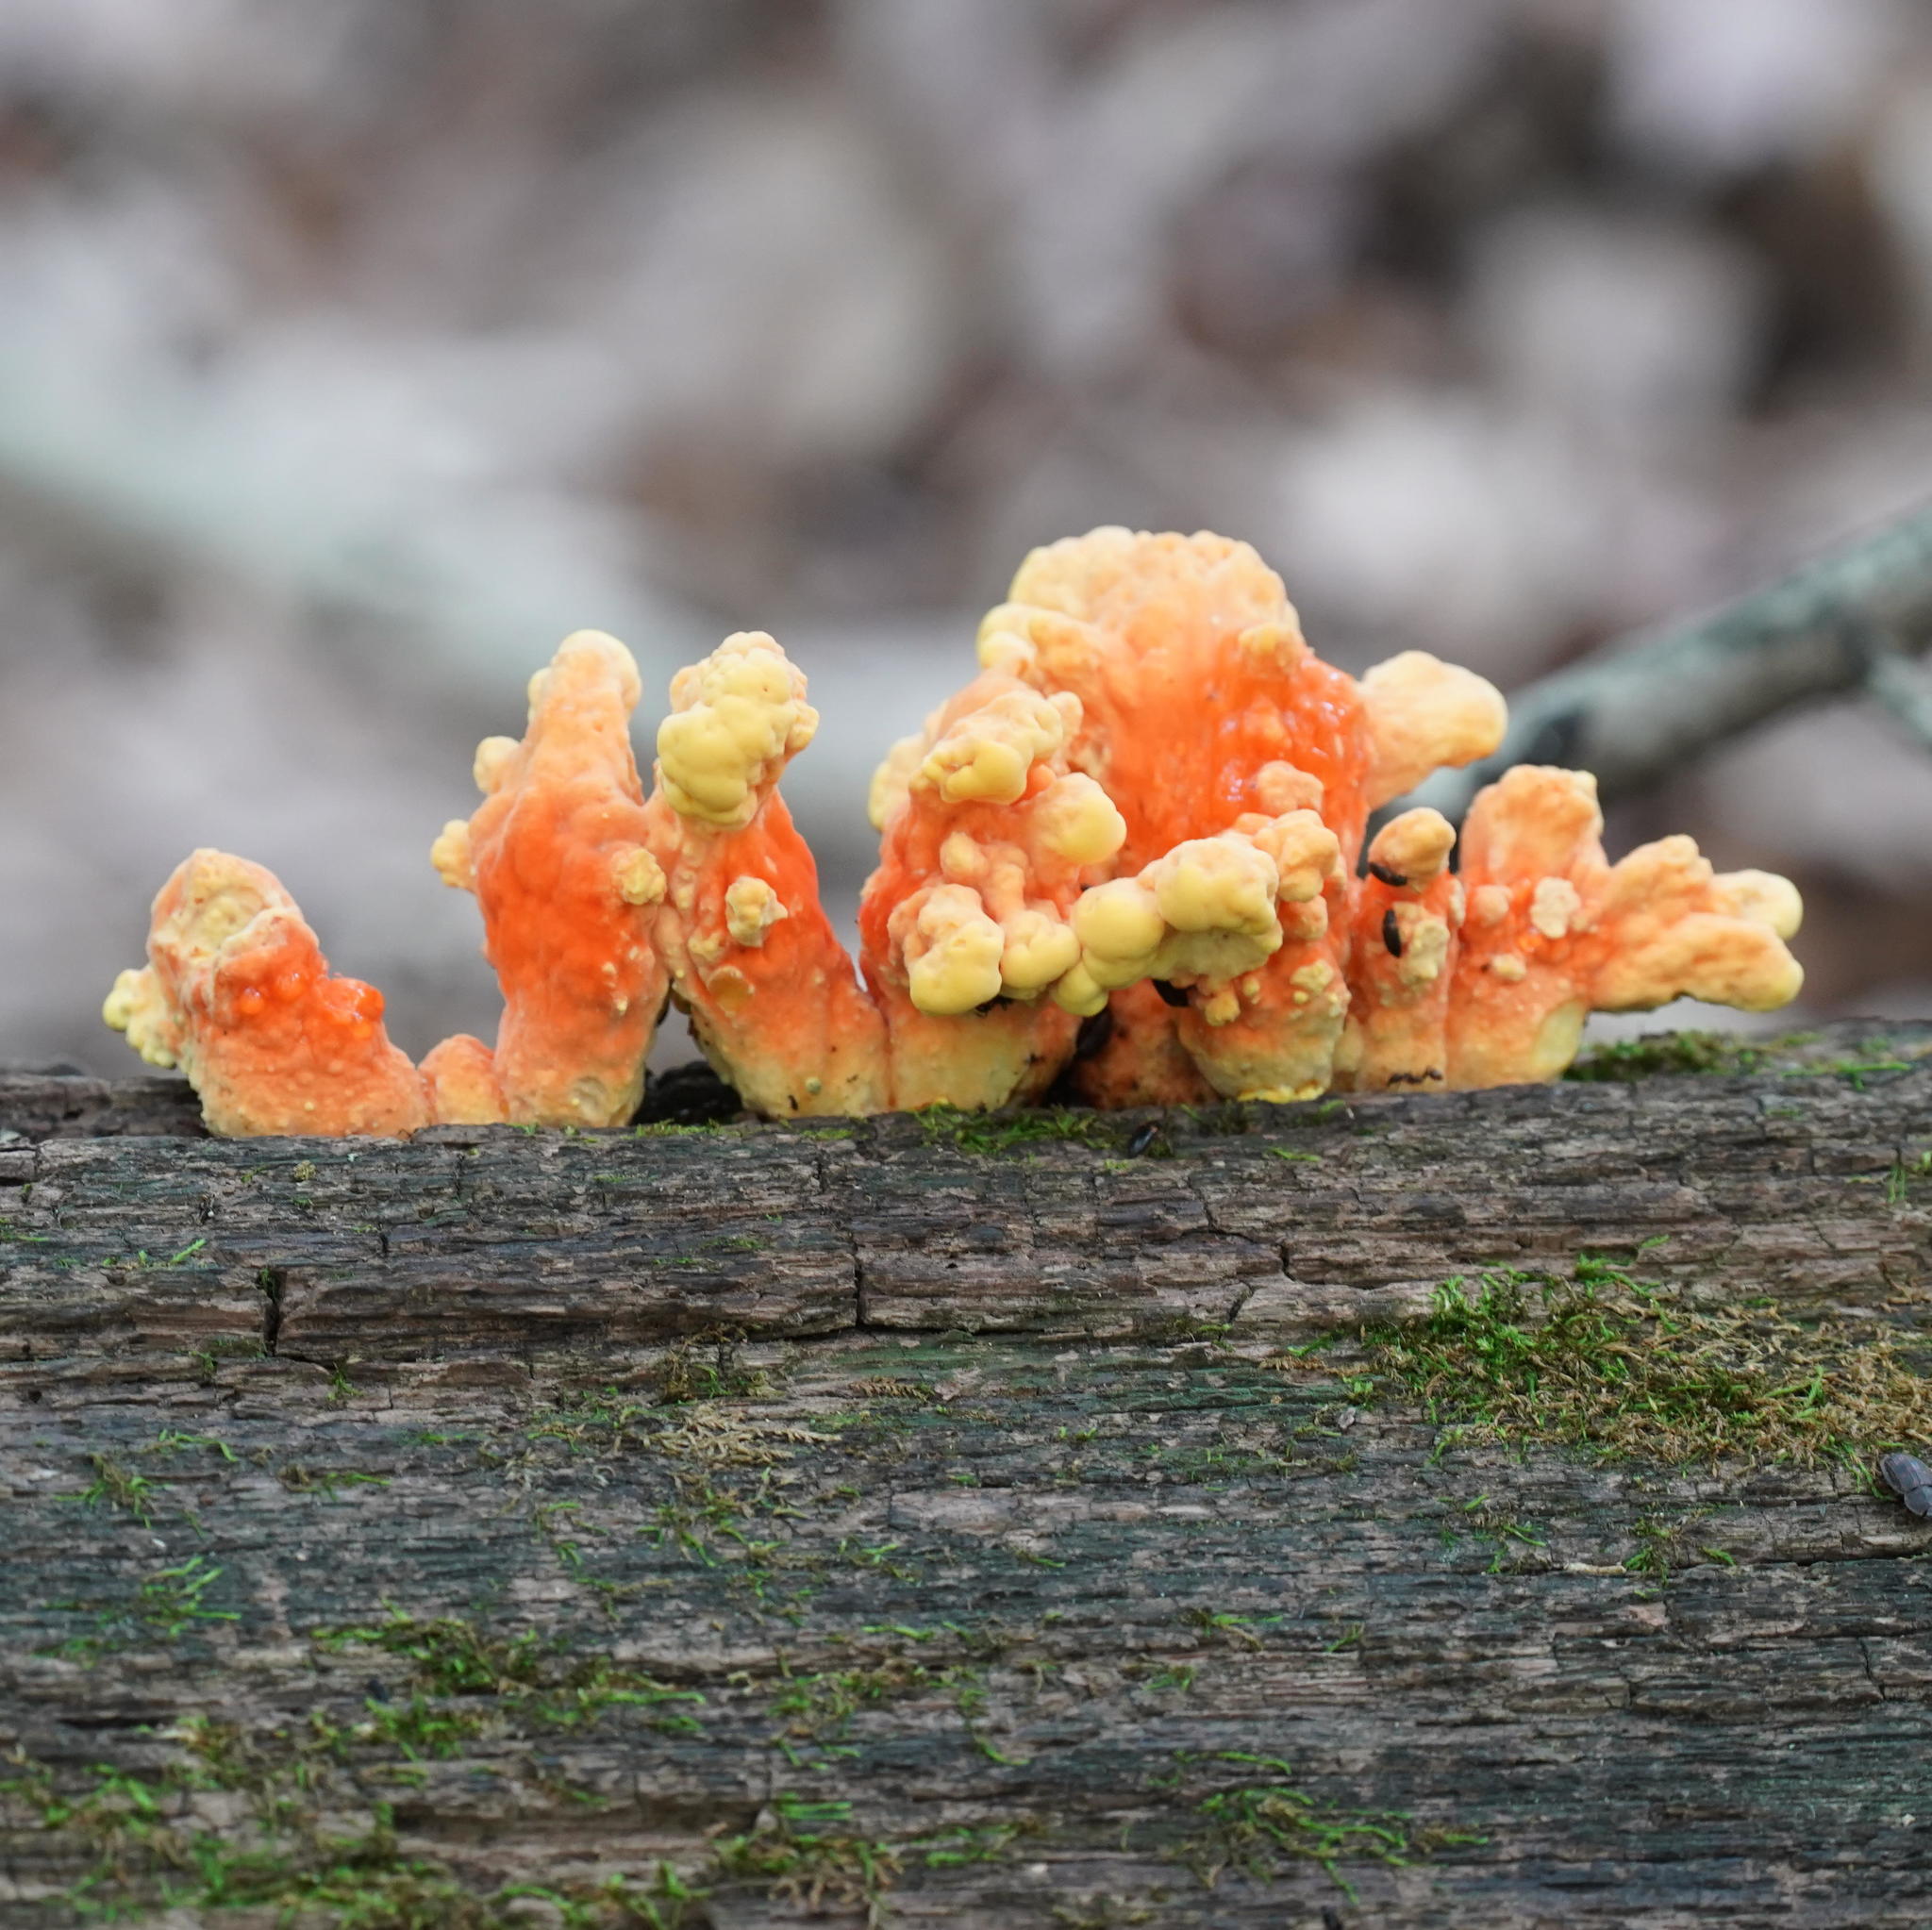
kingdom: Fungi
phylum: Basidiomycota
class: Agaricomycetes
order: Polyporales
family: Laetiporaceae
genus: Laetiporus
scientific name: Laetiporus sulphureus
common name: Chicken of the woods
